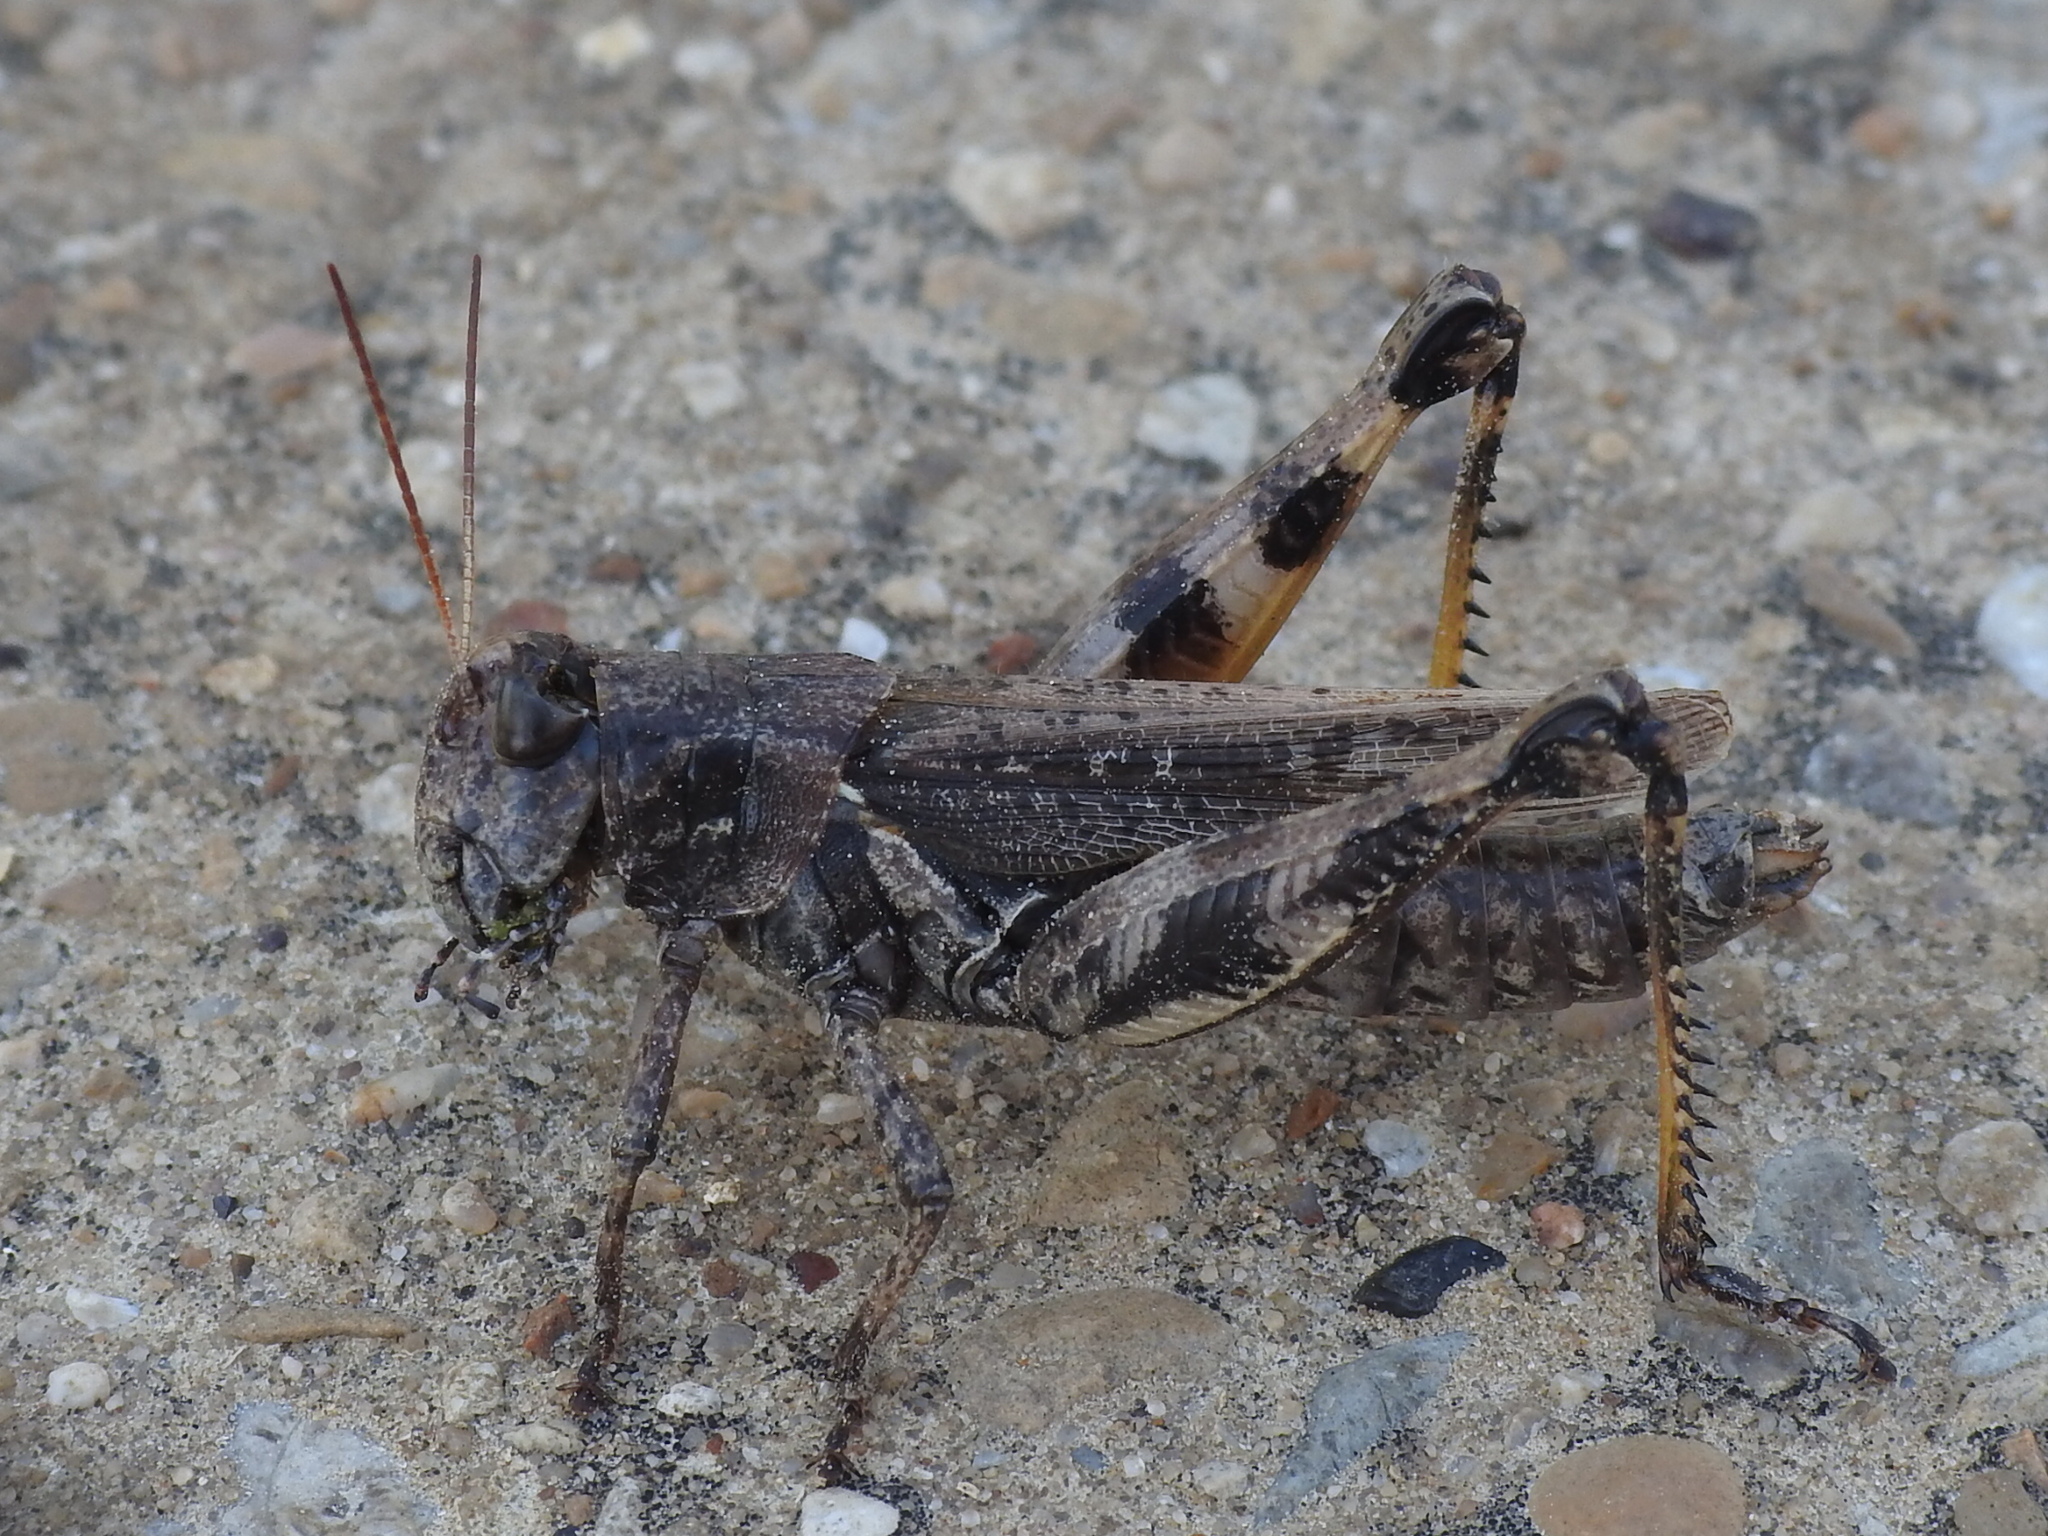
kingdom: Animalia
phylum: Arthropoda
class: Insecta
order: Orthoptera
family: Acrididae
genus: Melanoplus
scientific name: Melanoplus ponderosus
